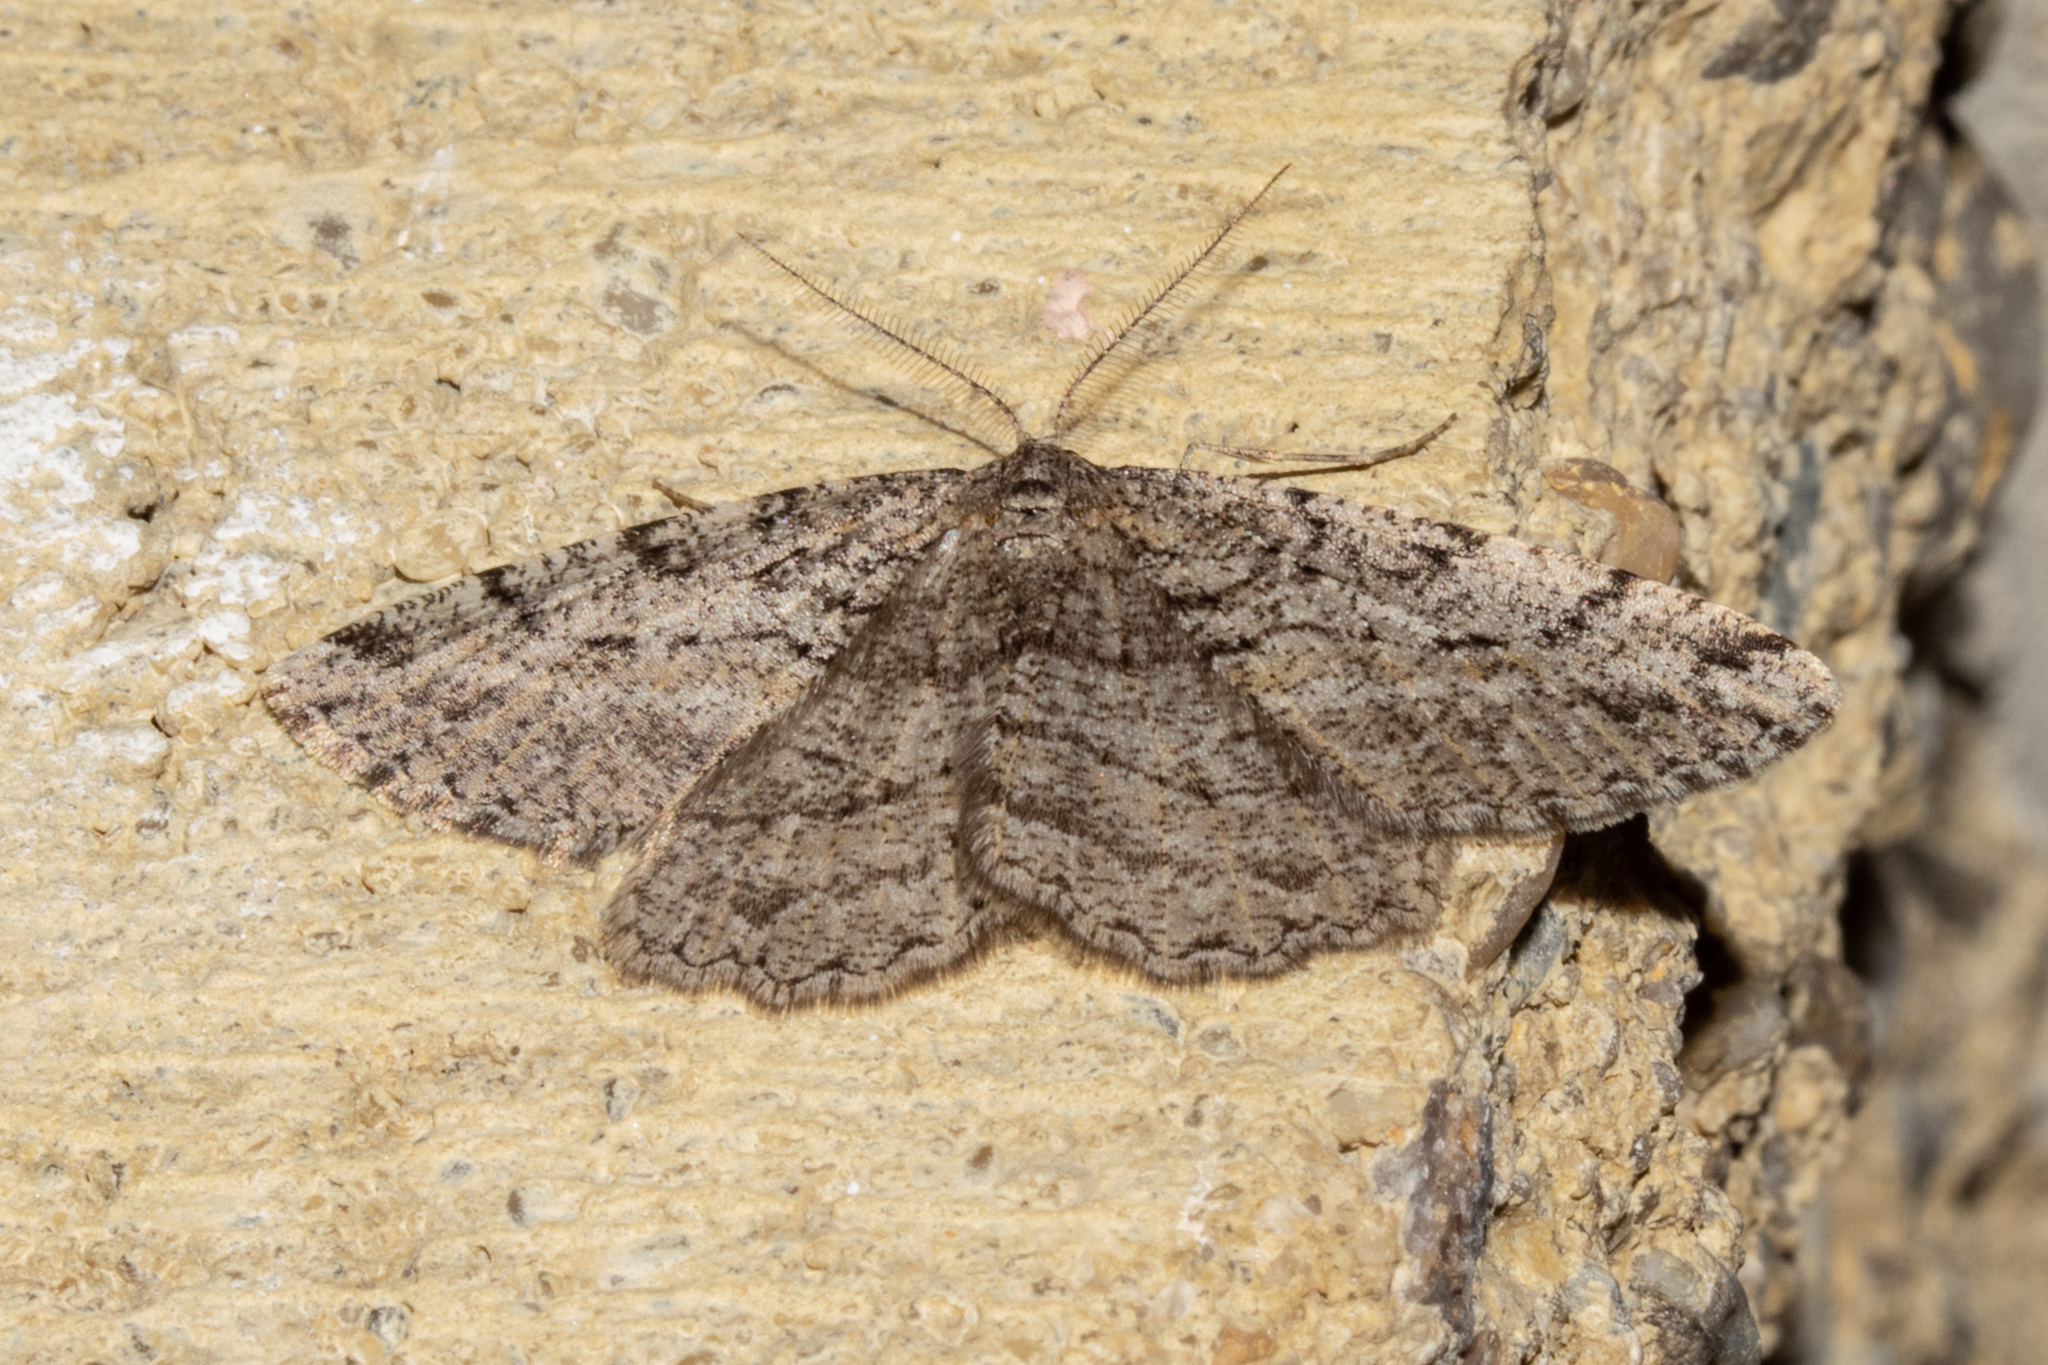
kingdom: Animalia
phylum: Arthropoda
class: Insecta
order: Lepidoptera
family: Geometridae
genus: Zermizinga
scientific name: Zermizinga indocilisaria
